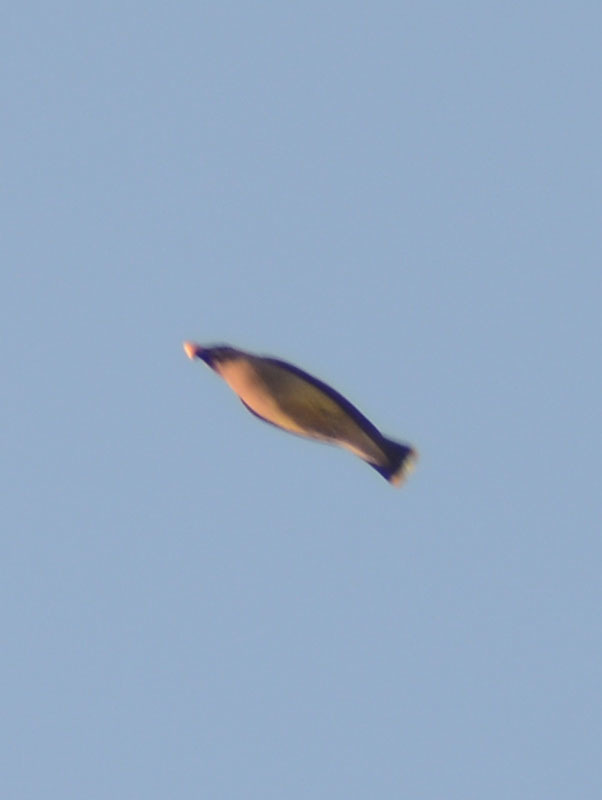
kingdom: Animalia
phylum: Chordata
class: Aves
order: Passeriformes
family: Bombycillidae
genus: Bombycilla
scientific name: Bombycilla cedrorum
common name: Cedar waxwing
